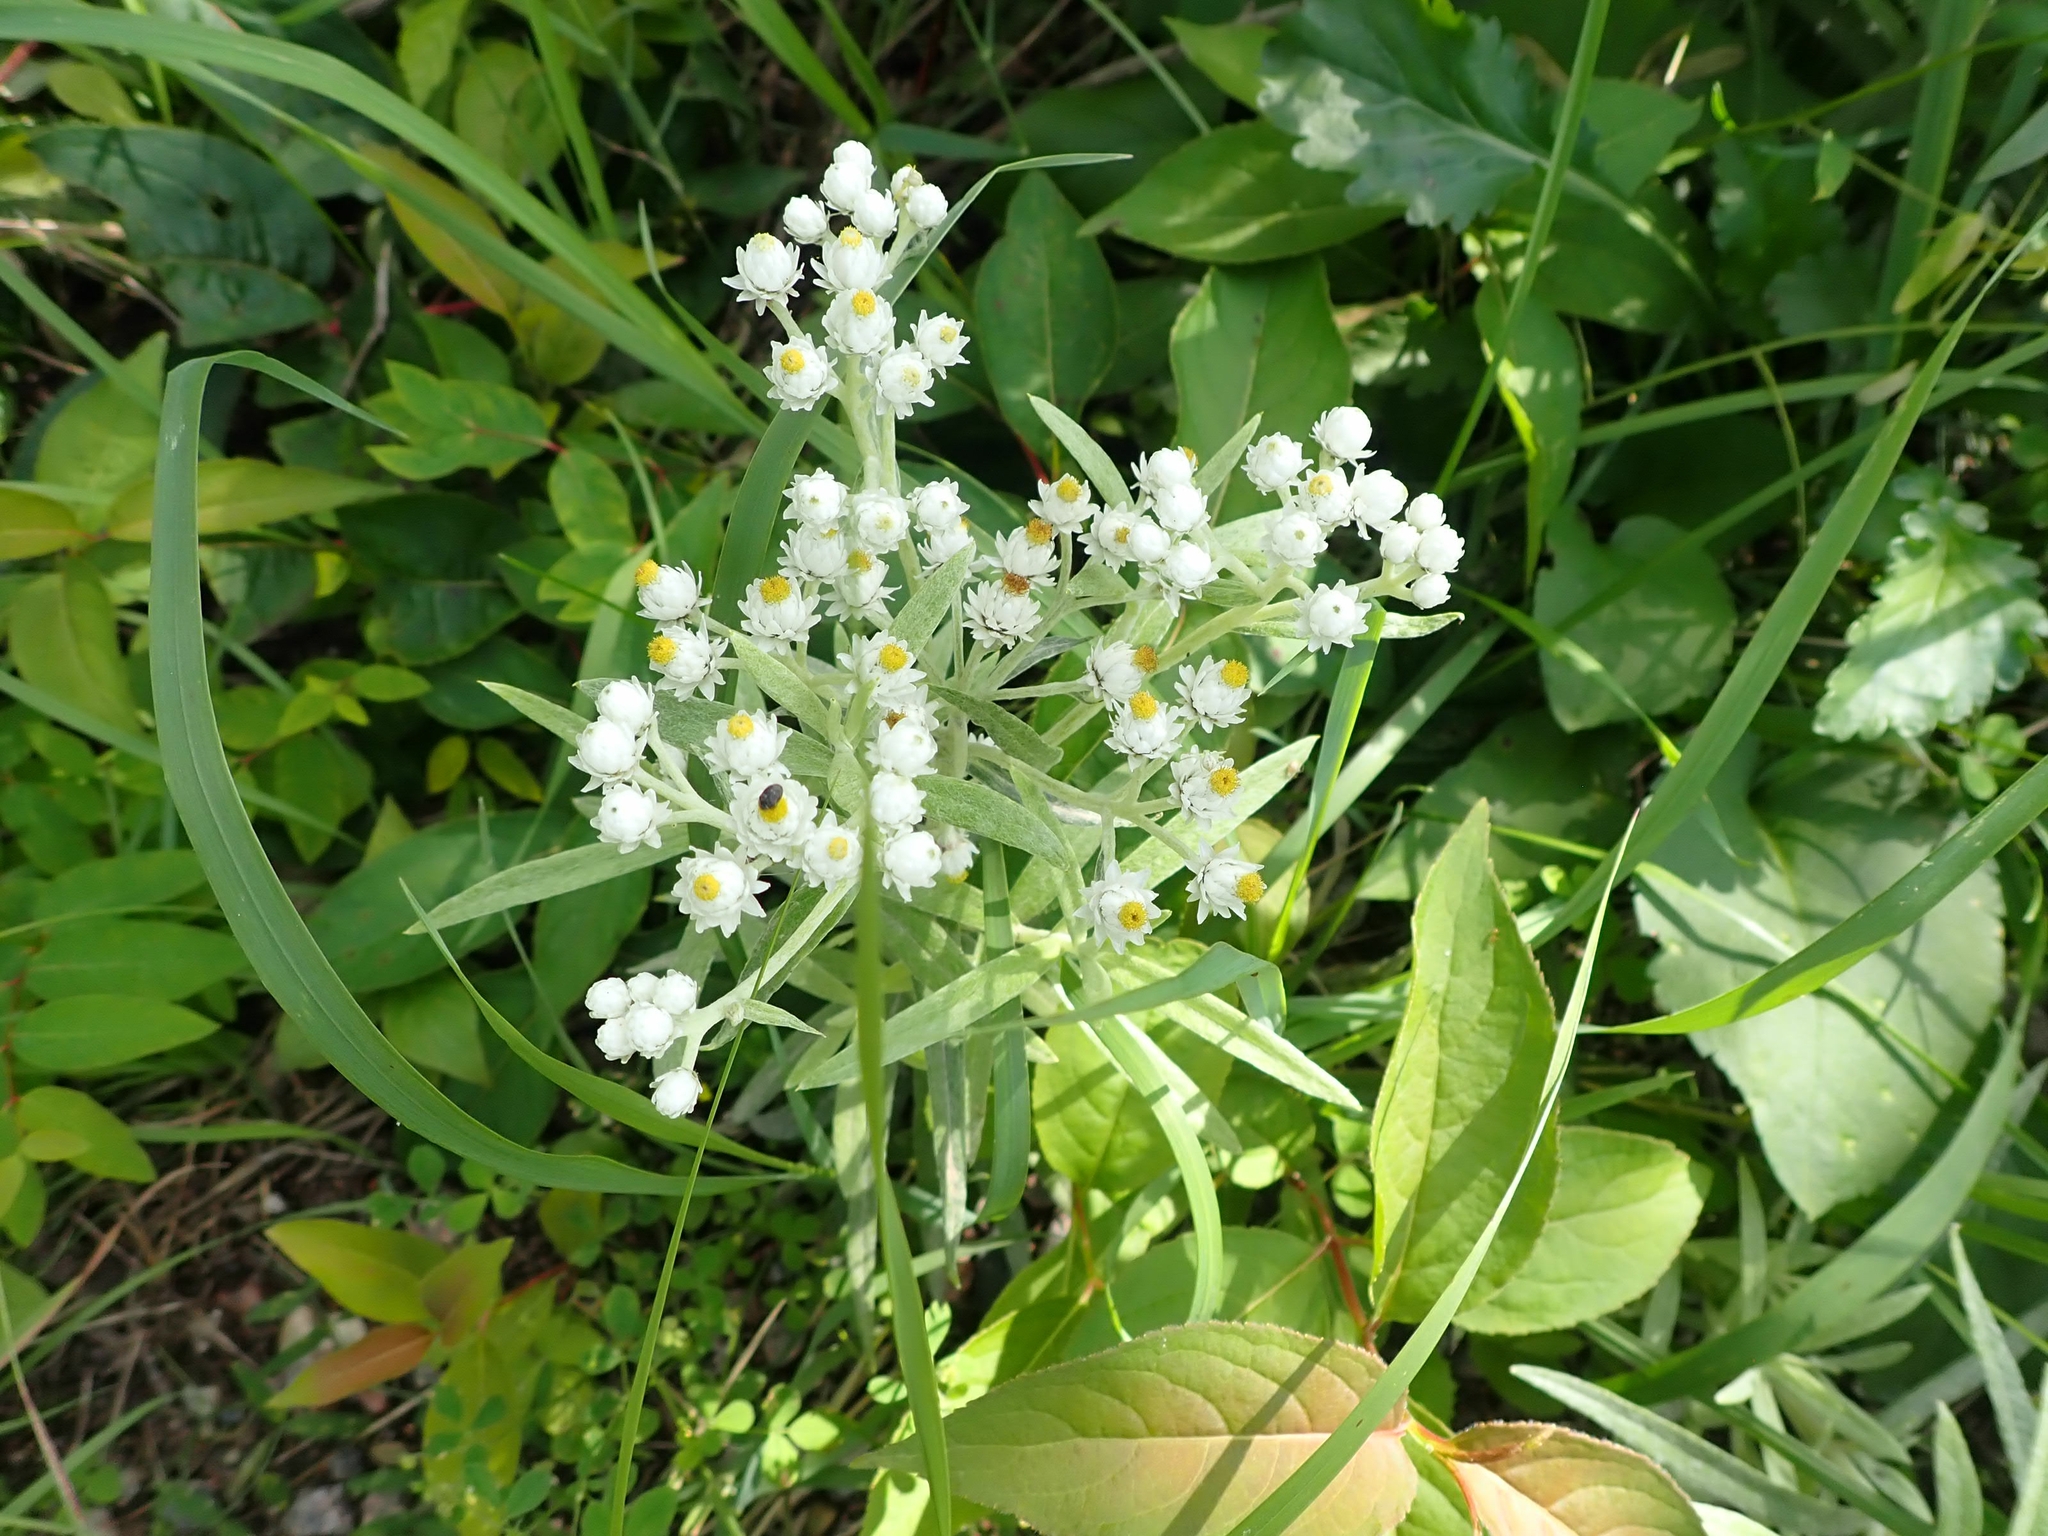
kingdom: Plantae
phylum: Tracheophyta
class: Magnoliopsida
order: Asterales
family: Asteraceae
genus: Anaphalis
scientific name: Anaphalis margaritacea
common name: Pearly everlasting
